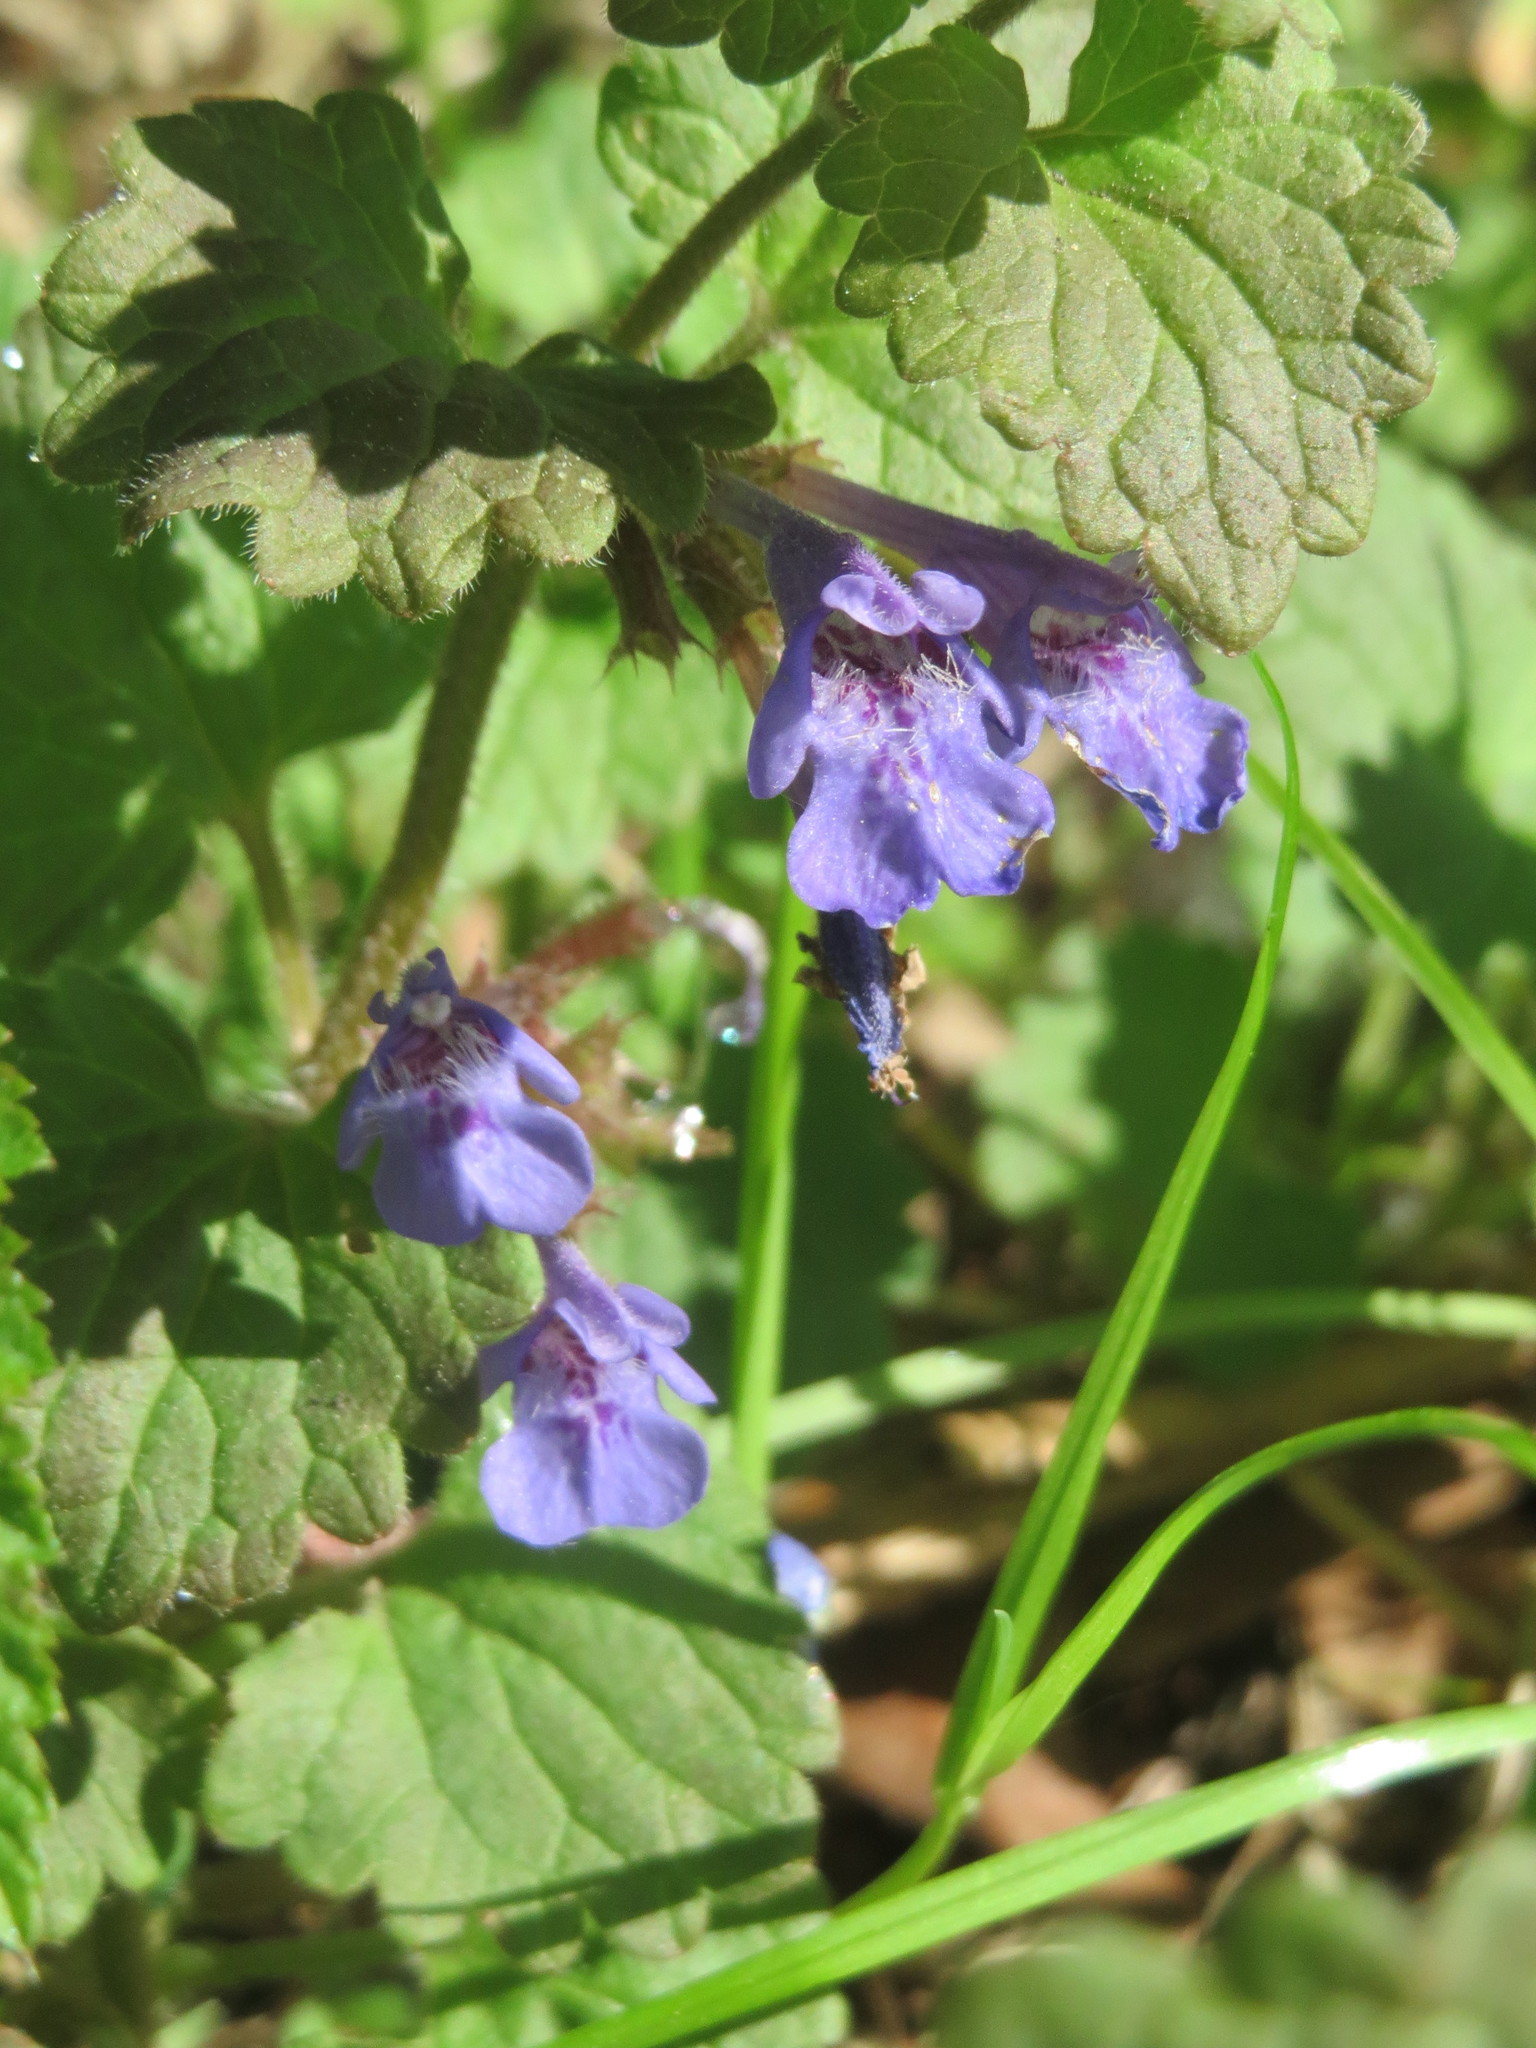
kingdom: Plantae
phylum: Tracheophyta
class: Magnoliopsida
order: Lamiales
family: Lamiaceae
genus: Glechoma
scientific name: Glechoma hederacea
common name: Ground ivy
